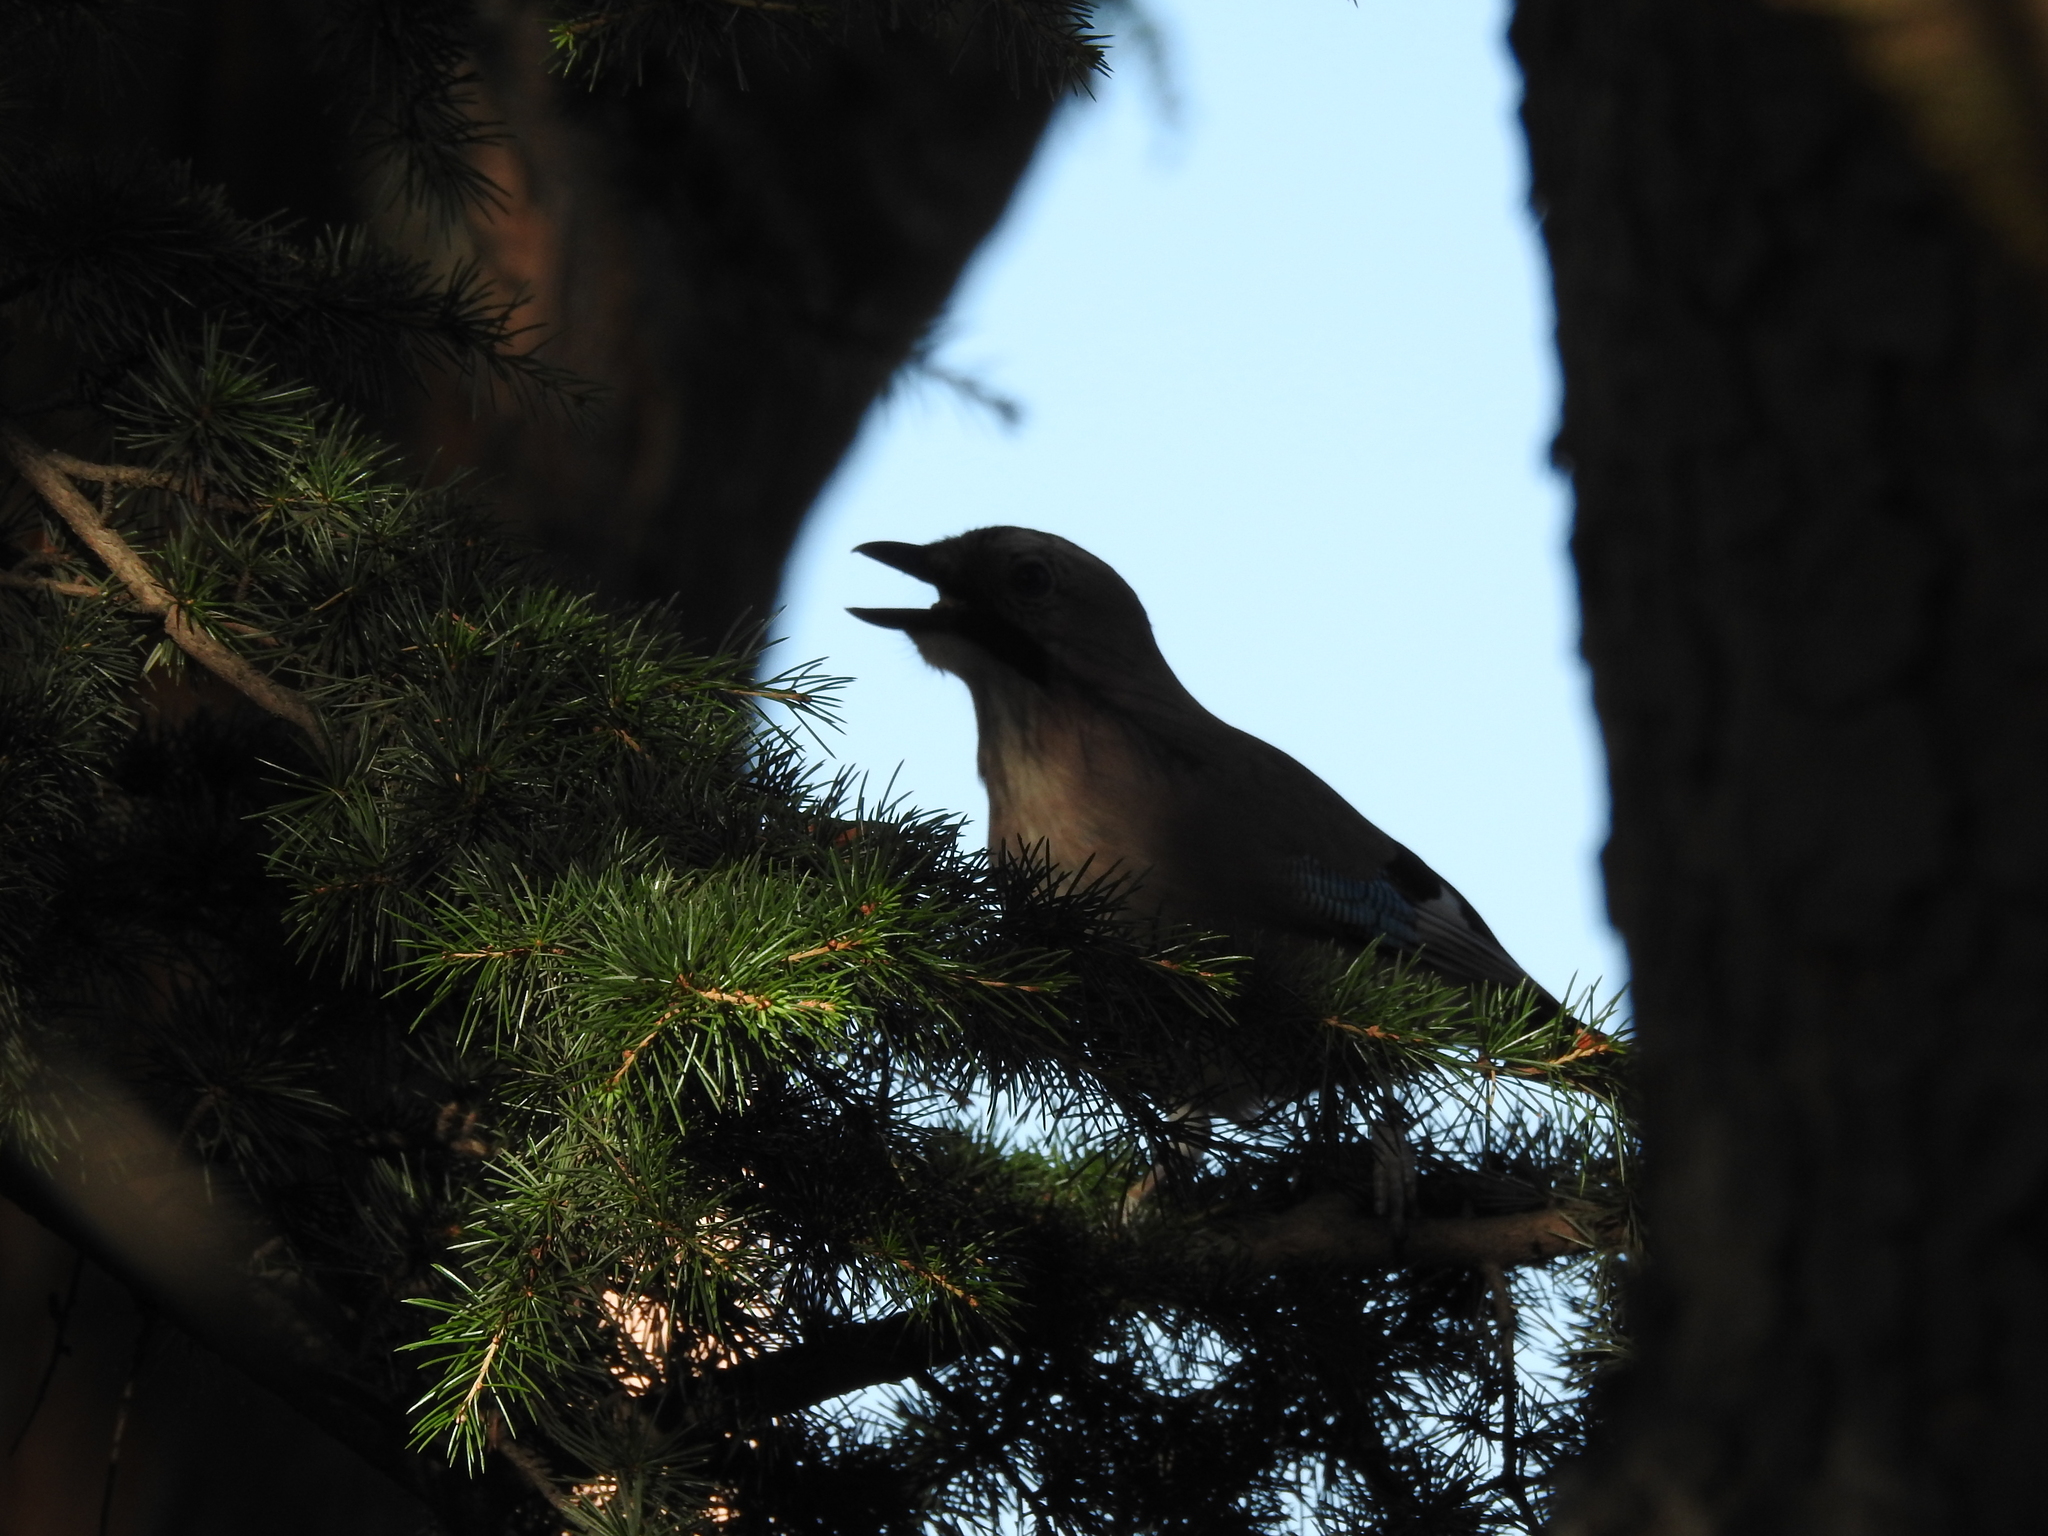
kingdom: Animalia
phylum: Chordata
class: Aves
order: Passeriformes
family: Corvidae
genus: Garrulus
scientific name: Garrulus glandarius
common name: Eurasian jay
